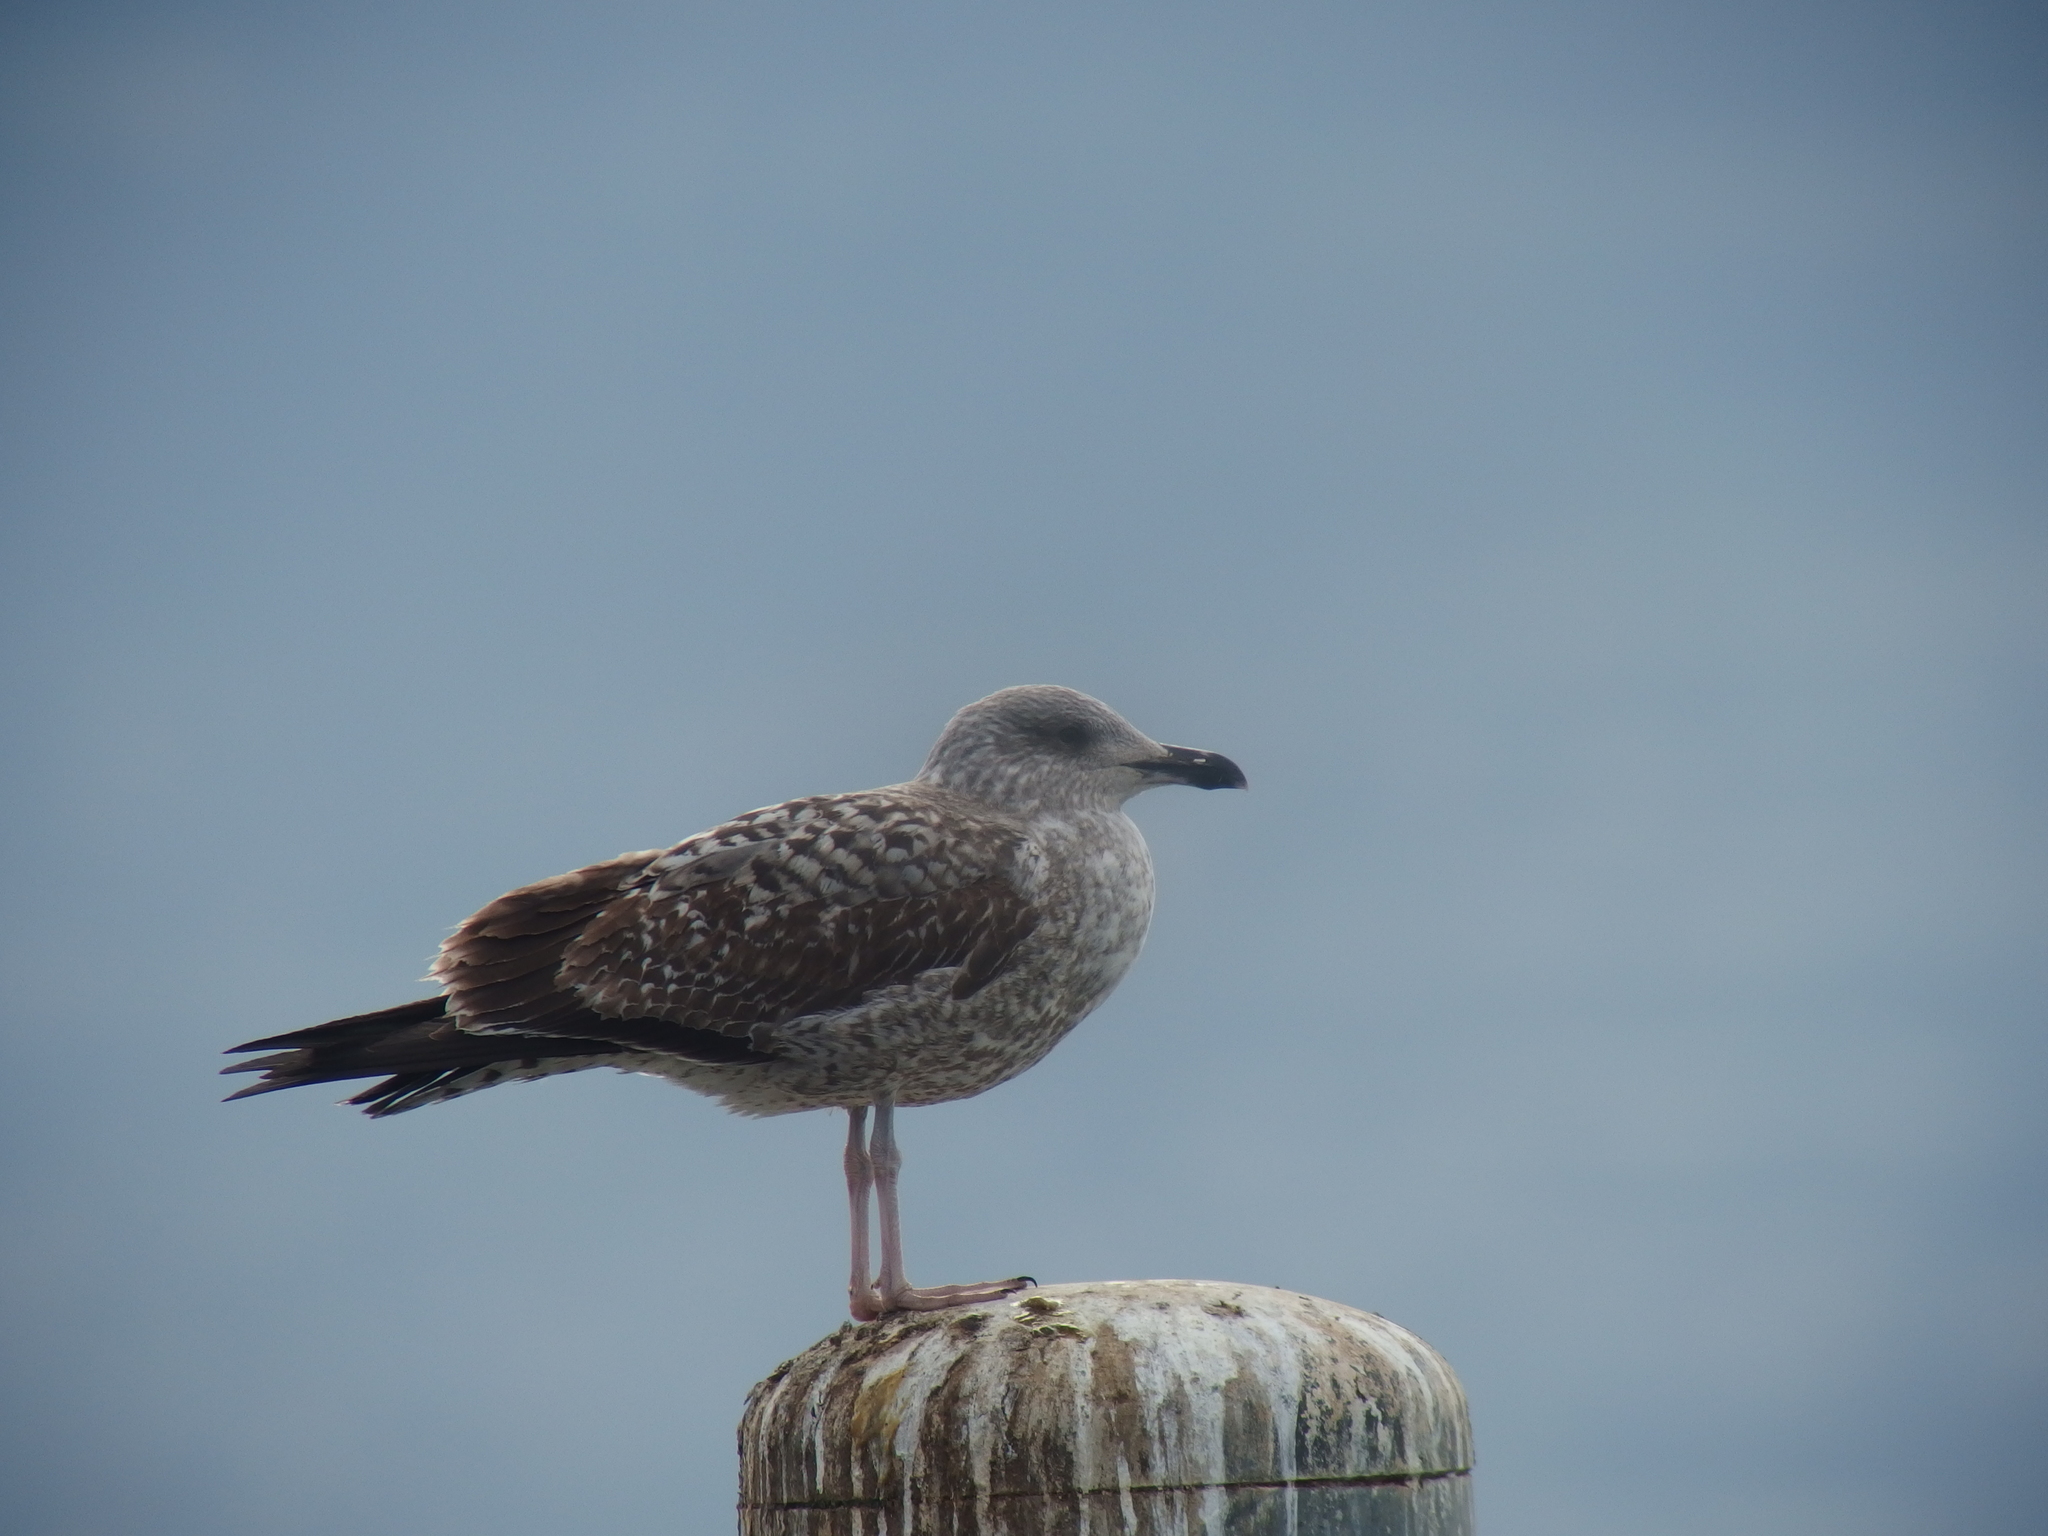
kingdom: Animalia
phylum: Chordata
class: Aves
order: Charadriiformes
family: Laridae
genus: Larus
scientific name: Larus michahellis
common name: Yellow-legged gull
